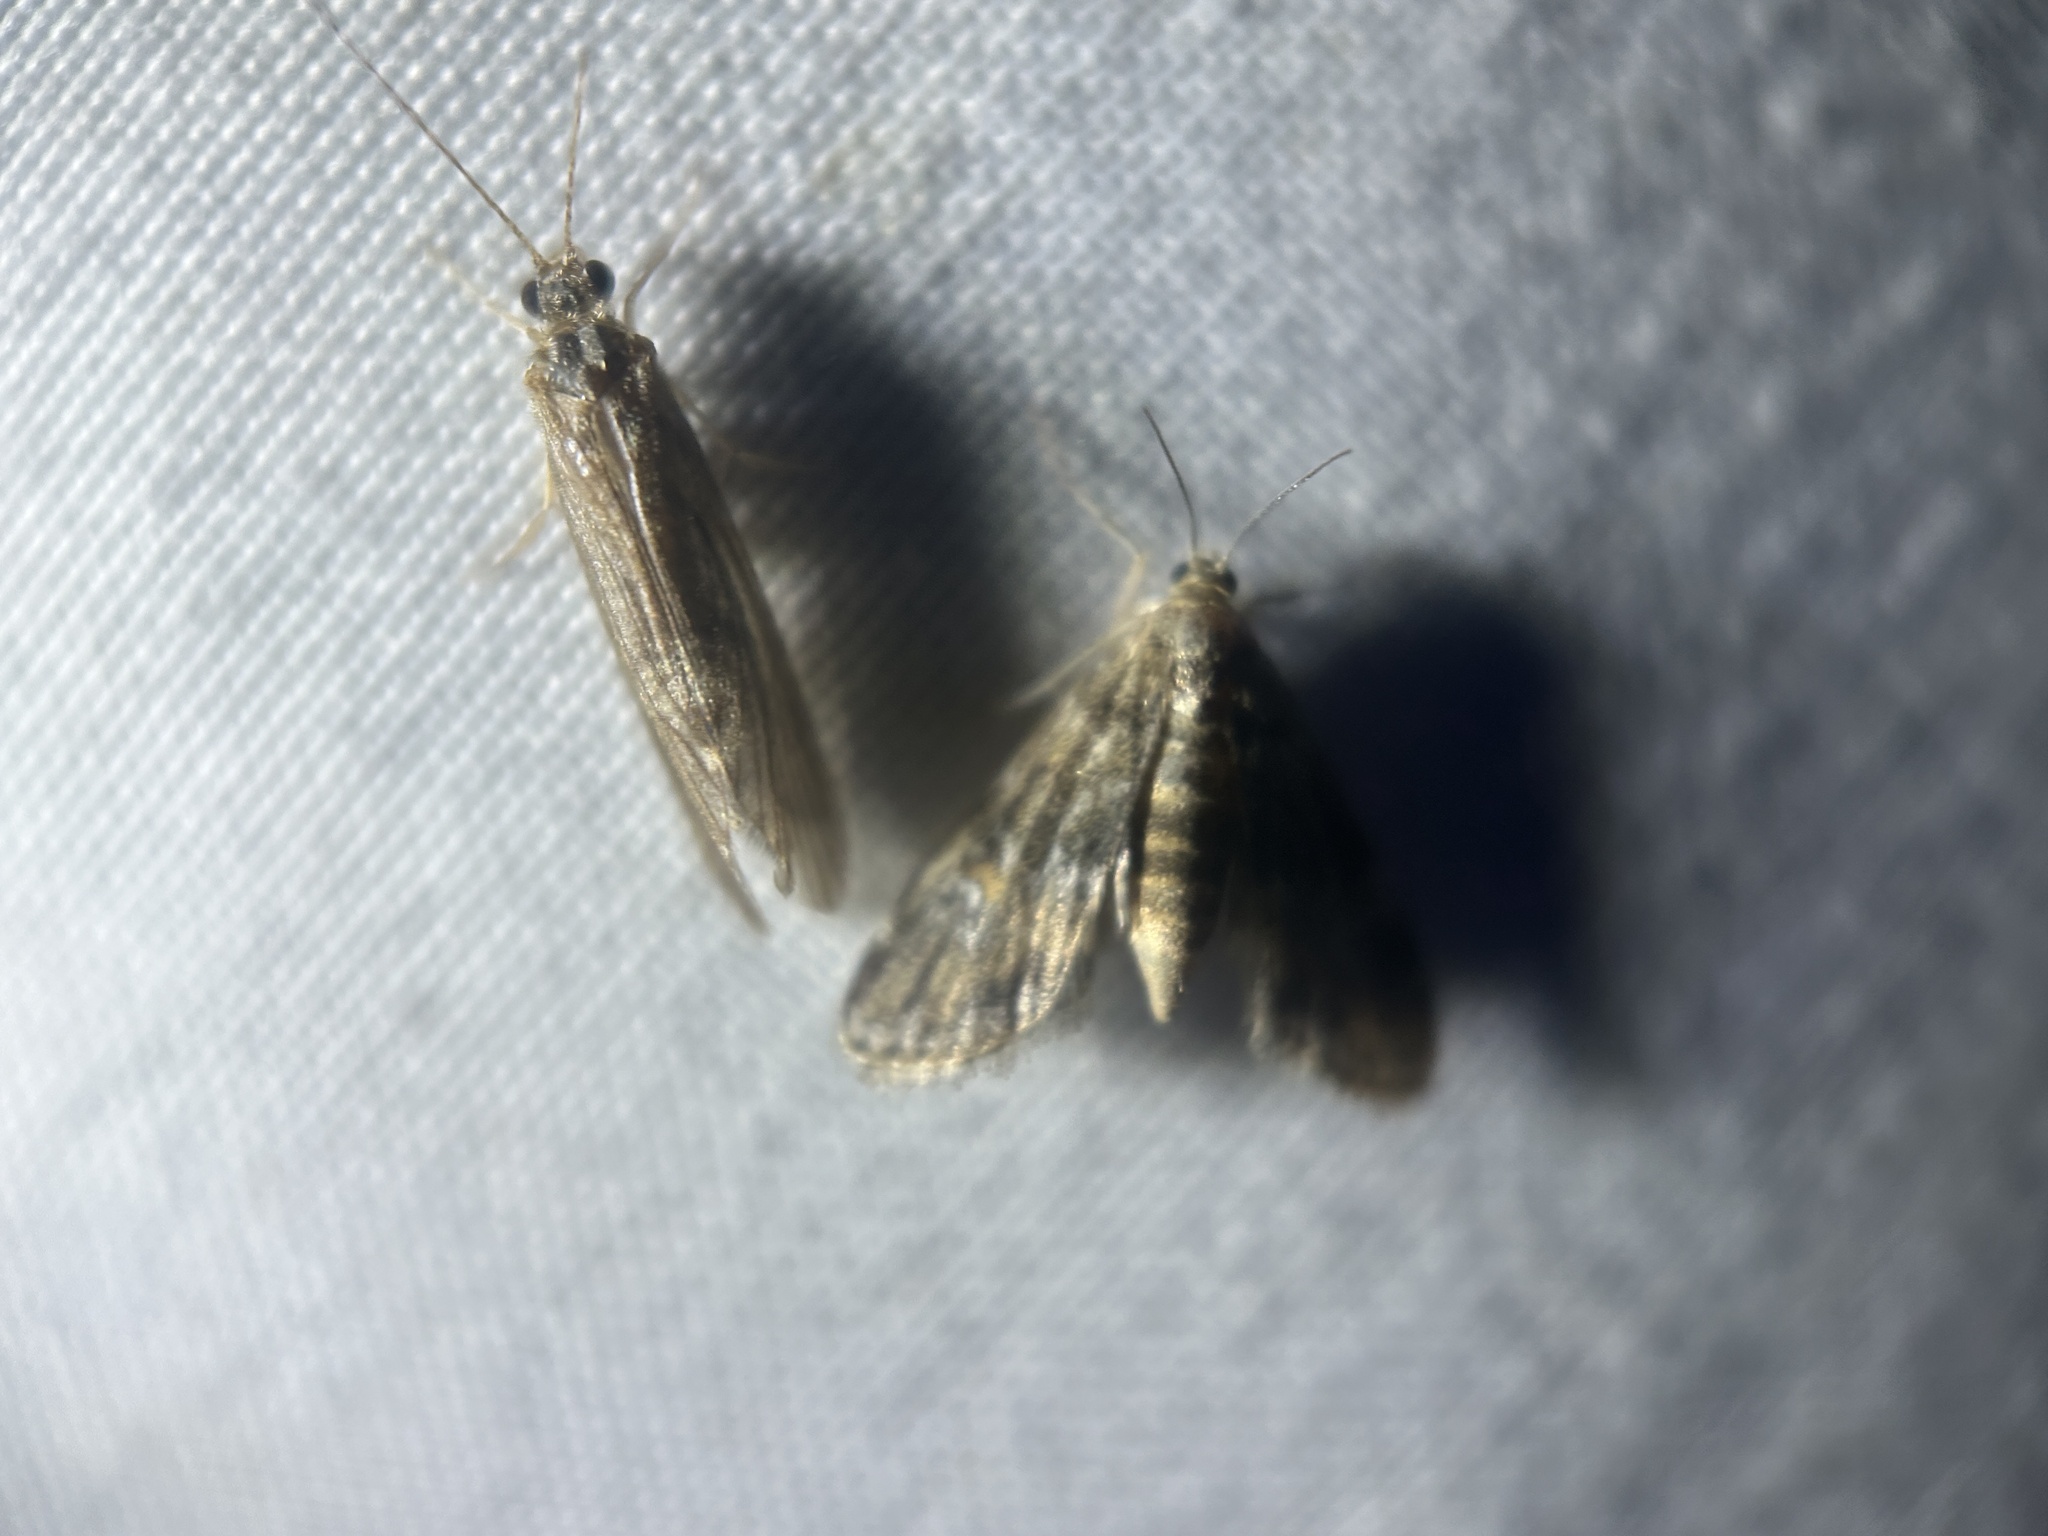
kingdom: Animalia
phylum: Arthropoda
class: Insecta
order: Lepidoptera
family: Crambidae
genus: Elophila
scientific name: Elophila obliteralis
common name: Waterlily leafcutter moth
